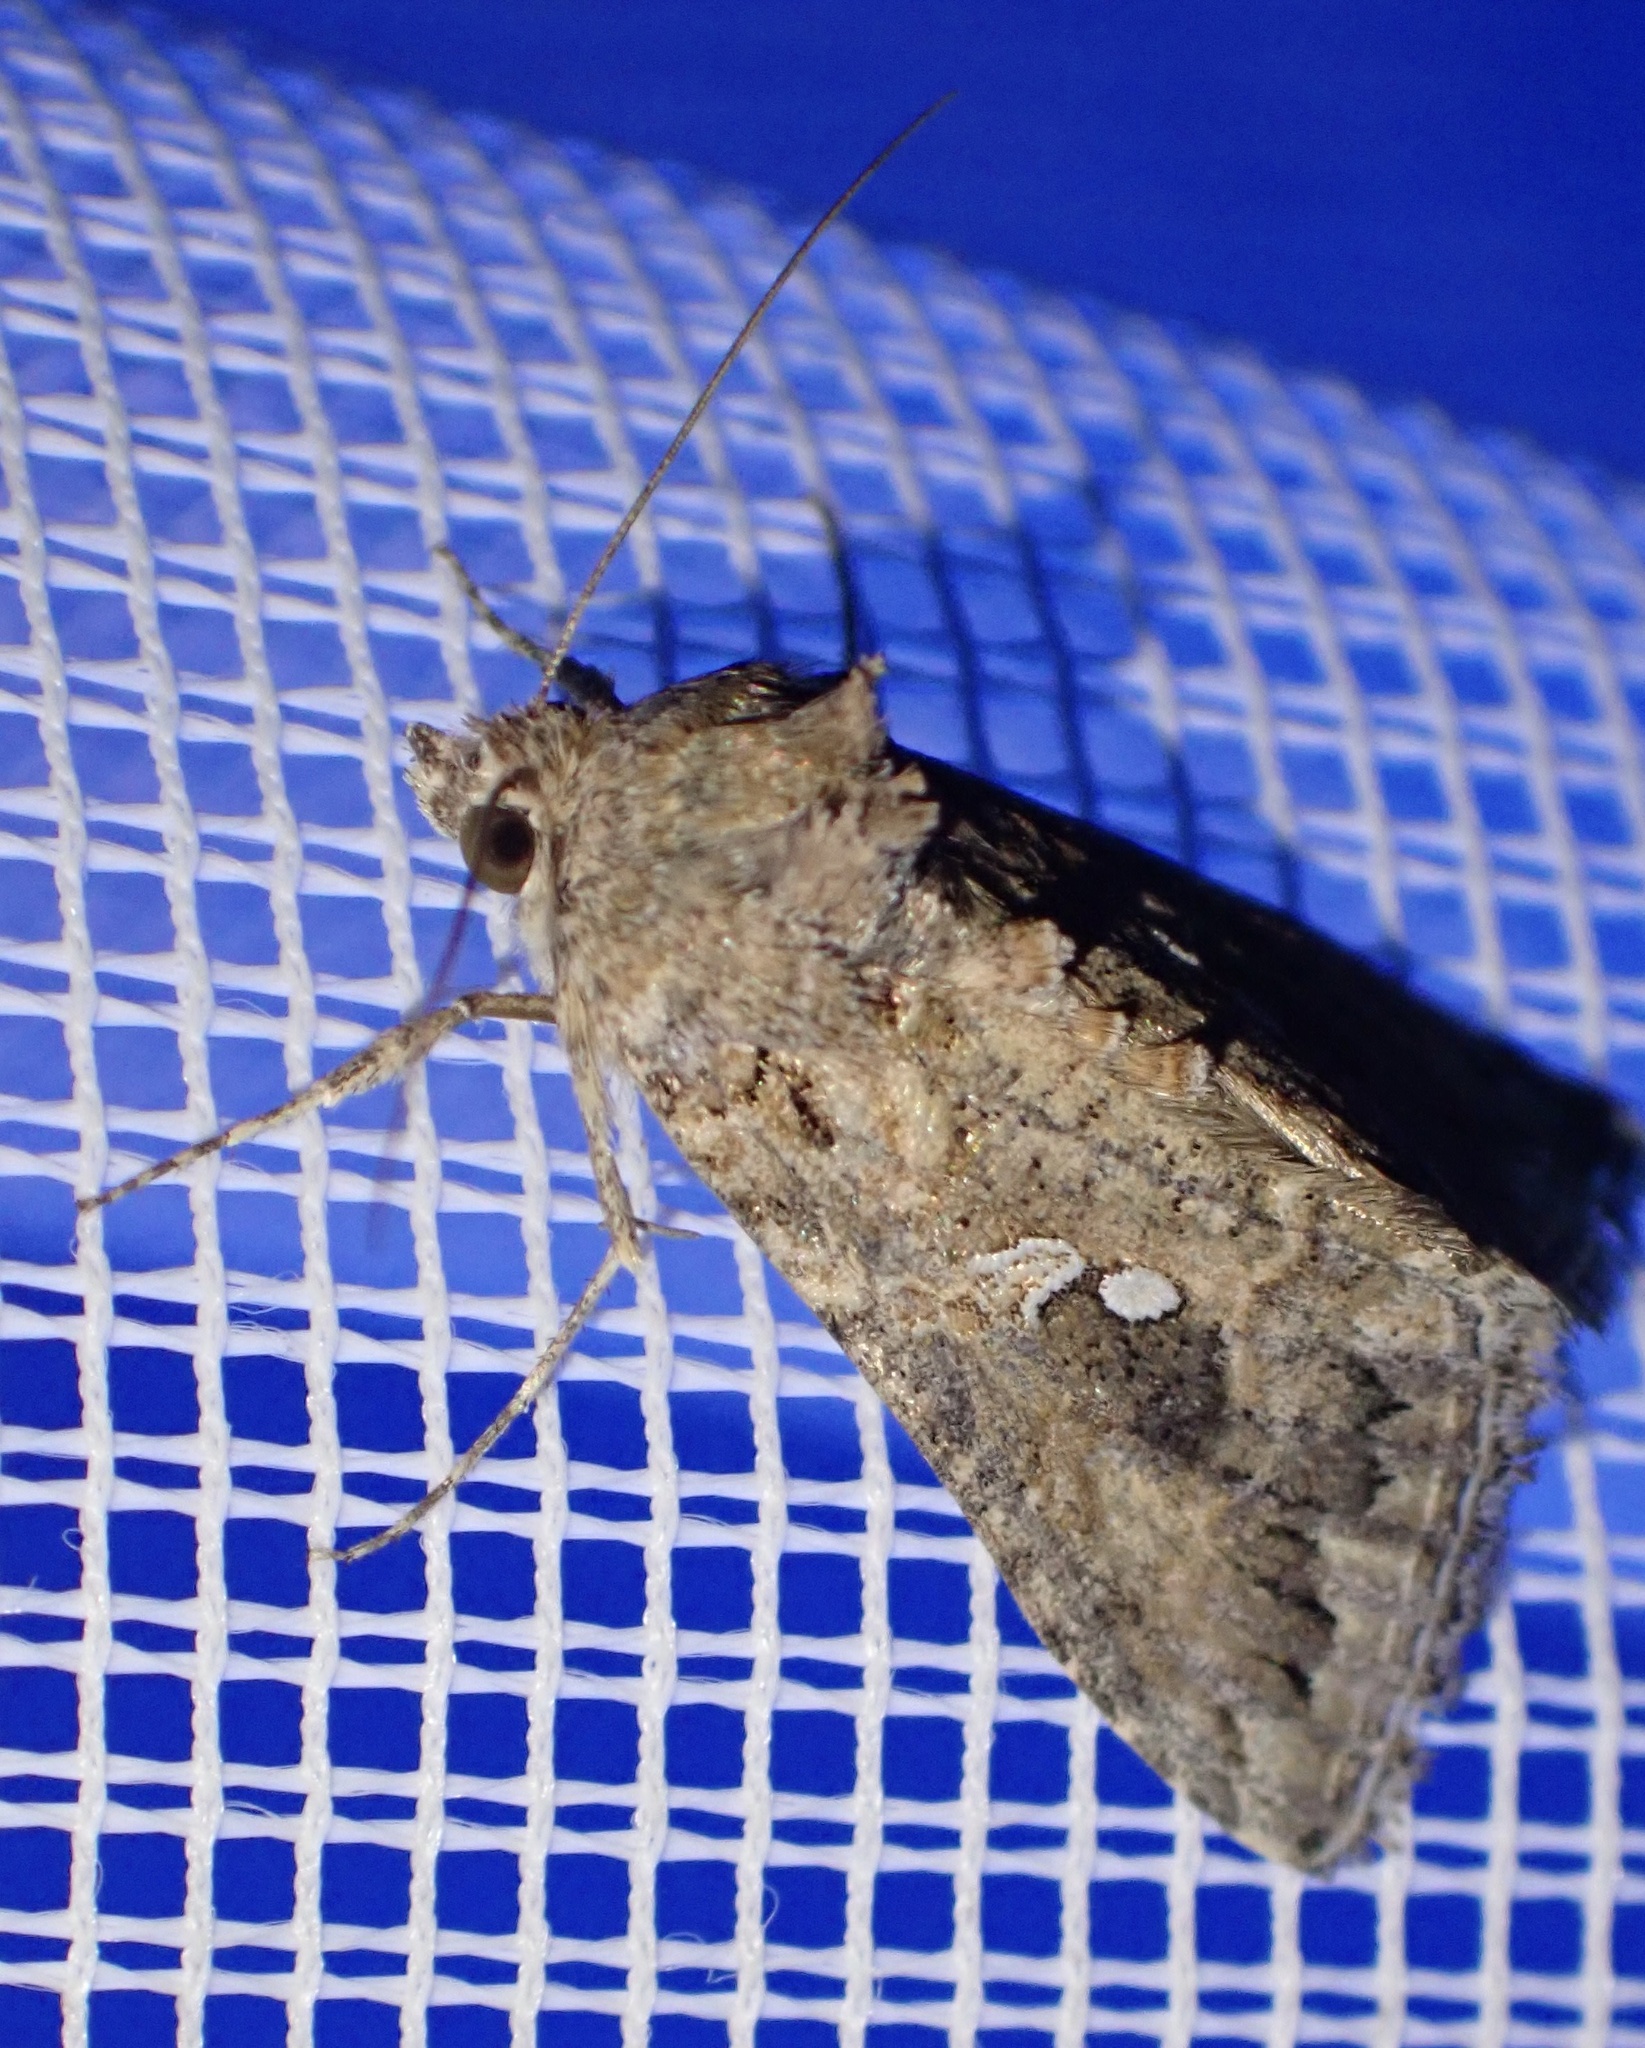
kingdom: Animalia
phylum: Arthropoda
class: Insecta
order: Lepidoptera
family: Noctuidae
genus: Trichoplusia
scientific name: Trichoplusia ni
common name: Ni moth
